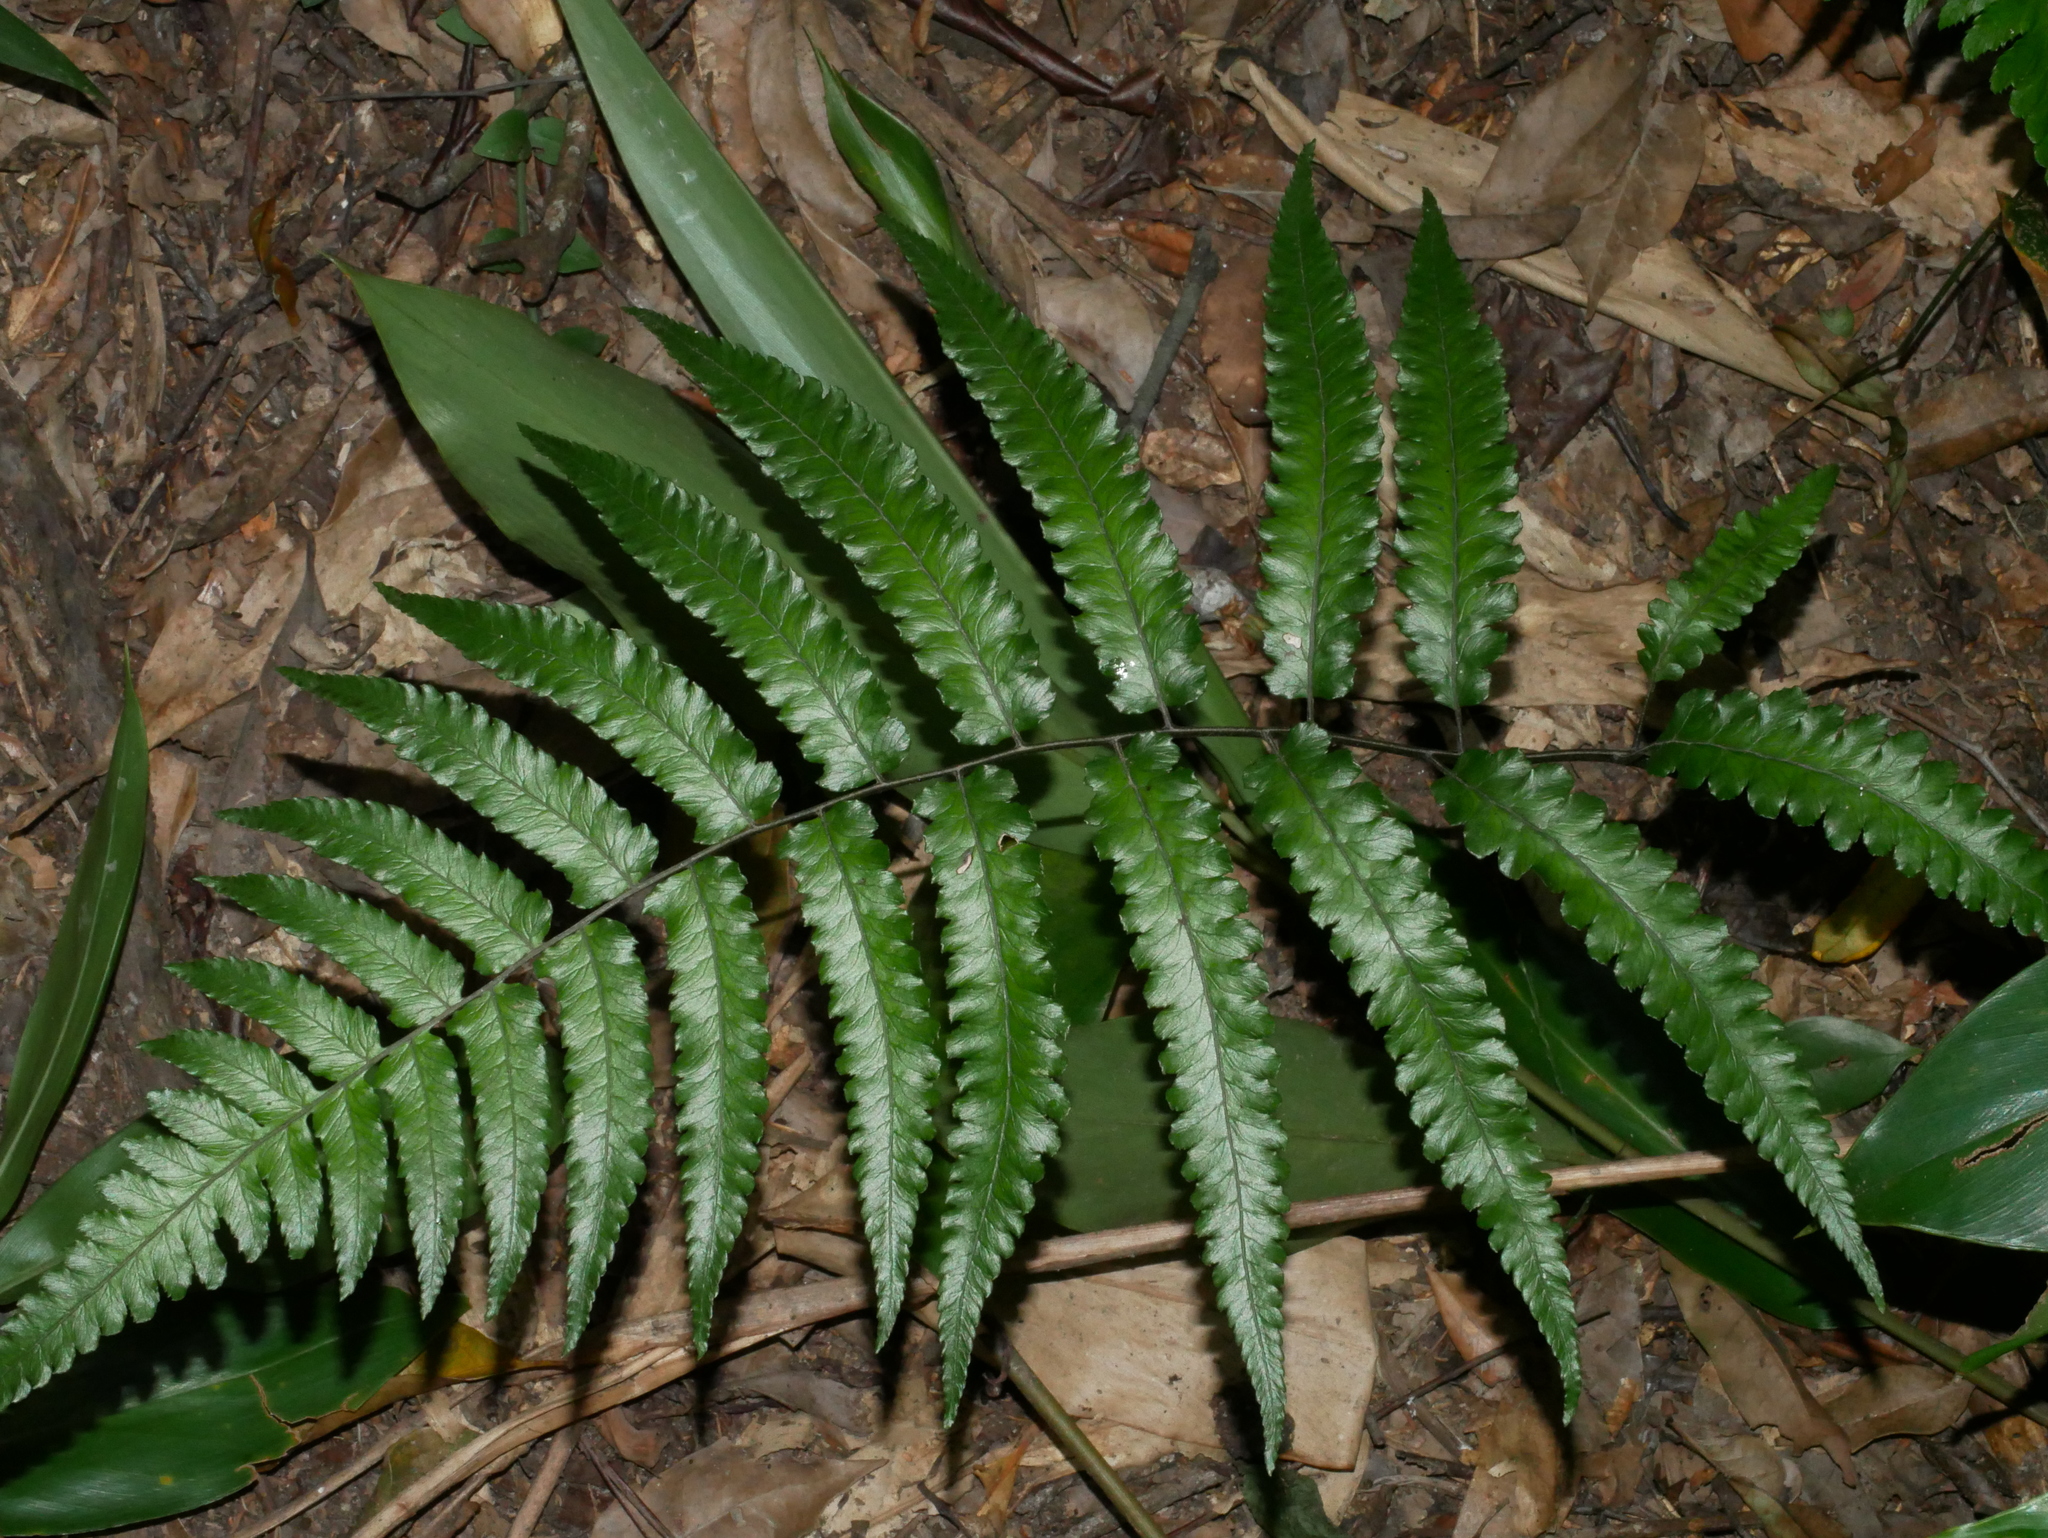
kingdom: Plantae
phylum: Tracheophyta
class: Polypodiopsida
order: Polypodiales
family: Athyriaceae
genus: Diplazium
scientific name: Diplazium mettenianum
